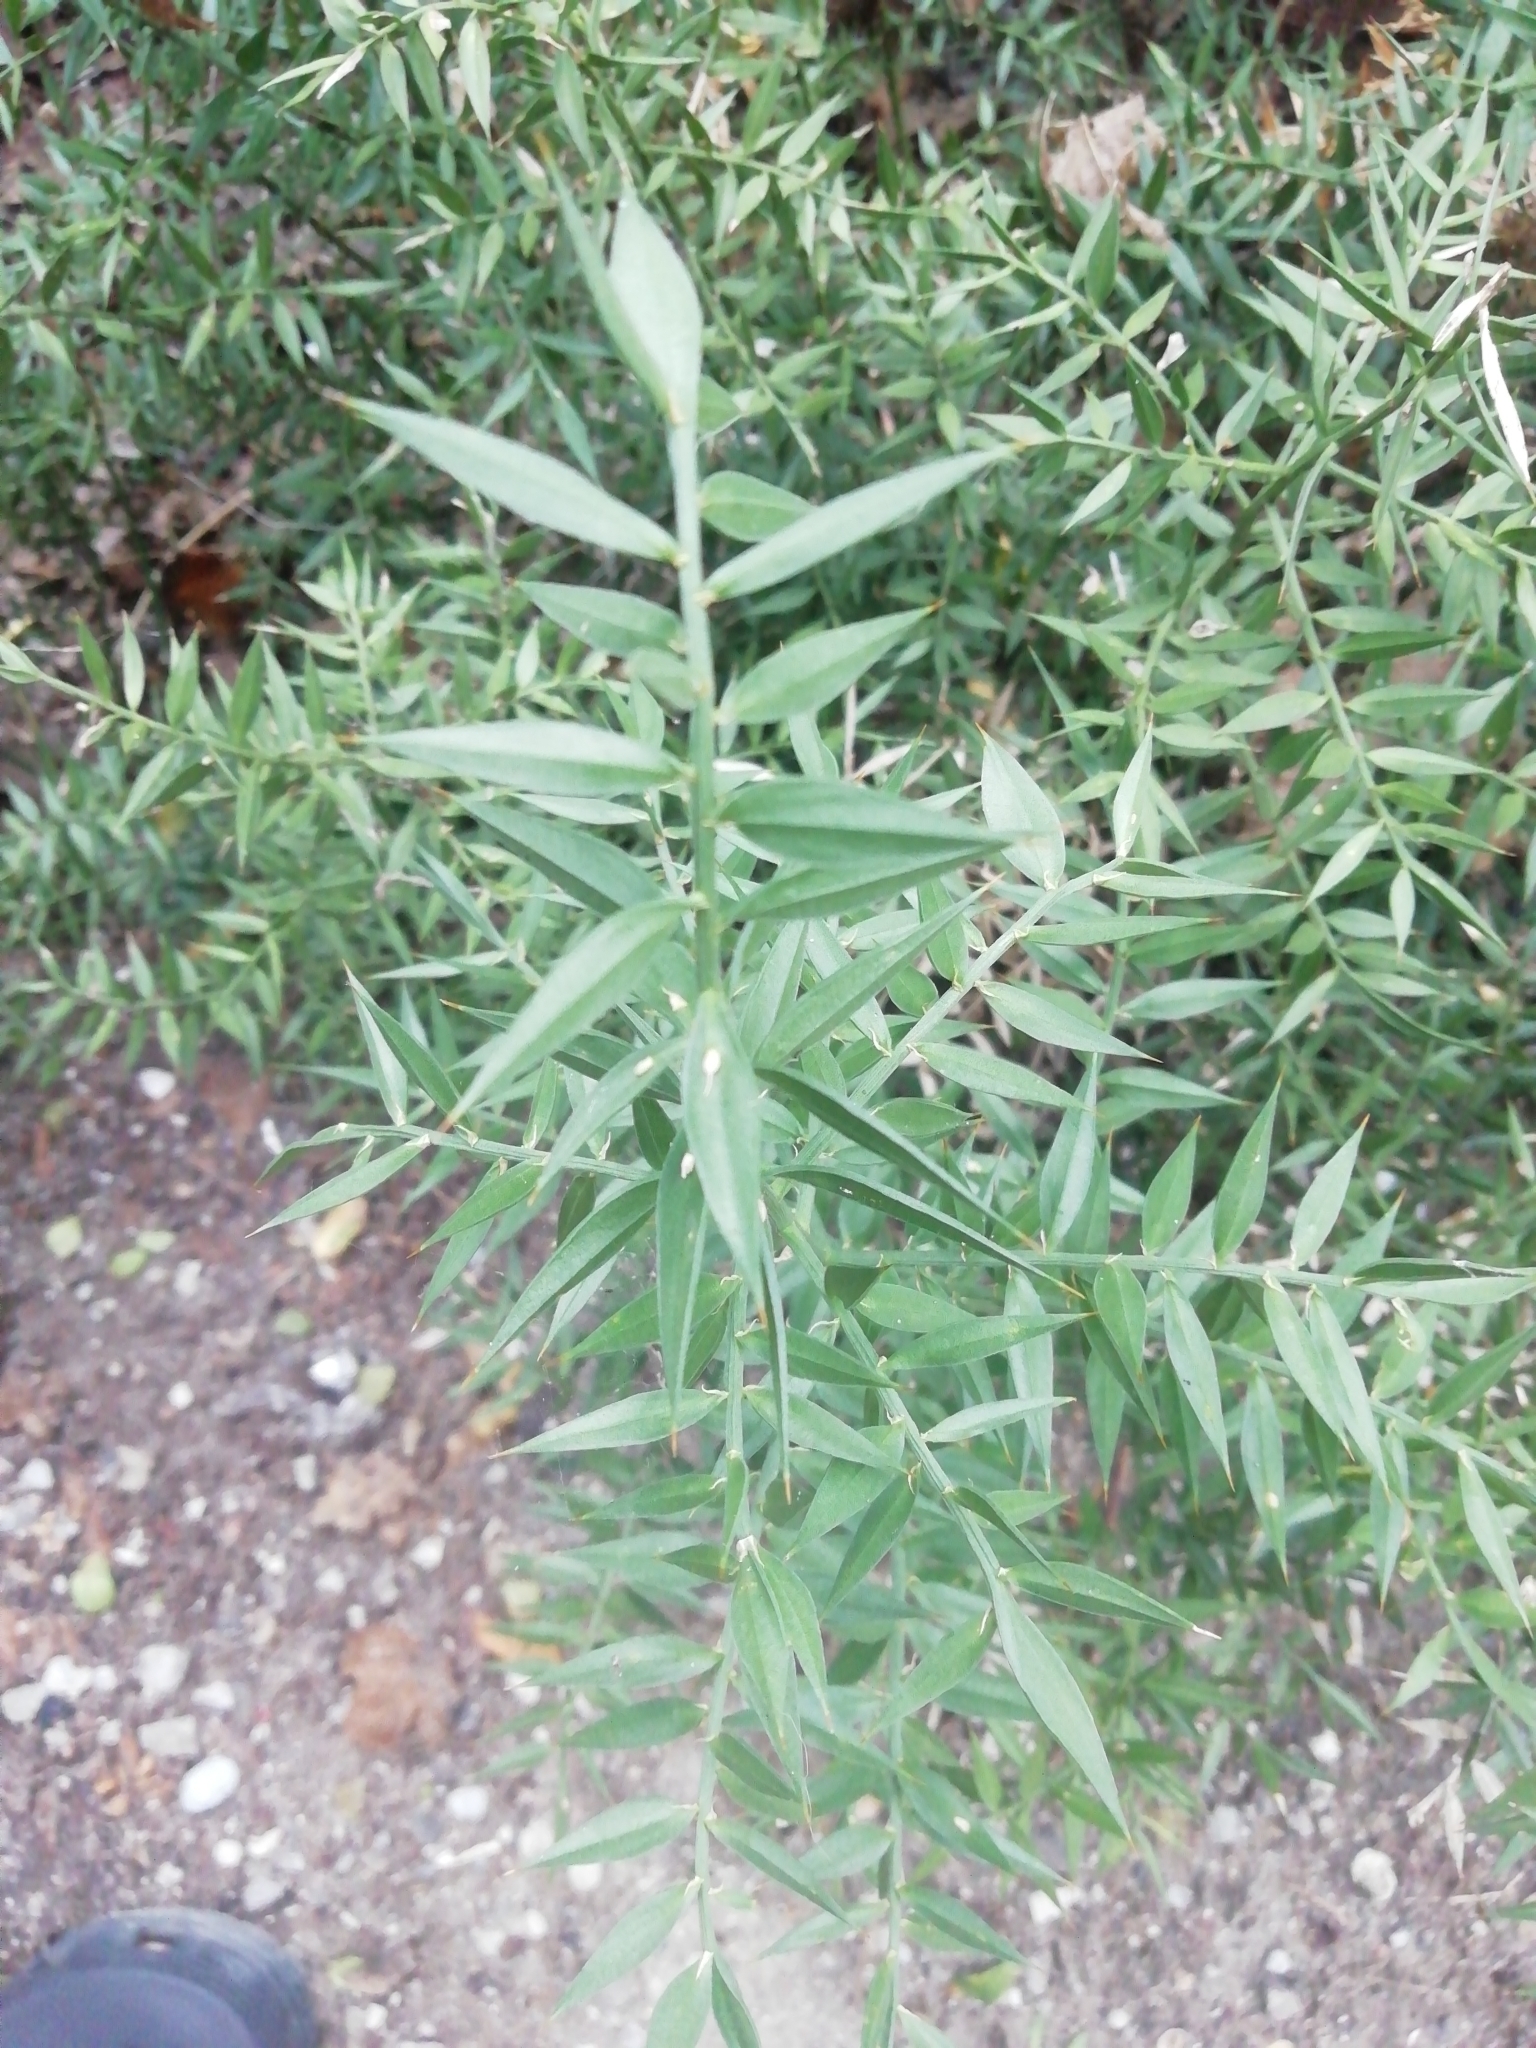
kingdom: Plantae
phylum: Tracheophyta
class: Liliopsida
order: Asparagales
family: Asparagaceae
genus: Ruscus
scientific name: Ruscus aculeatus
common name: Butcher's-broom
